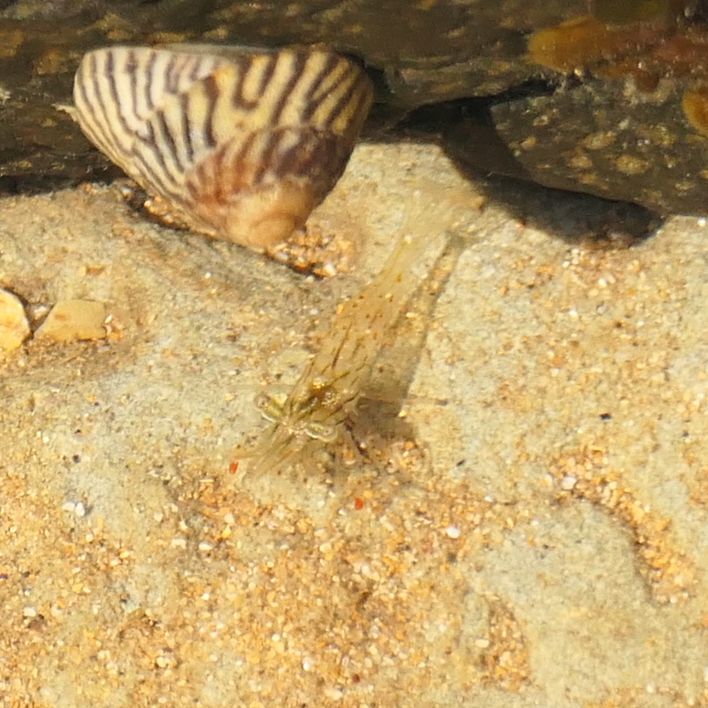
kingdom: Animalia
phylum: Arthropoda
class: Malacostraca
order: Decapoda
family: Palaemonidae
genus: Palaemon
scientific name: Palaemon serenus
